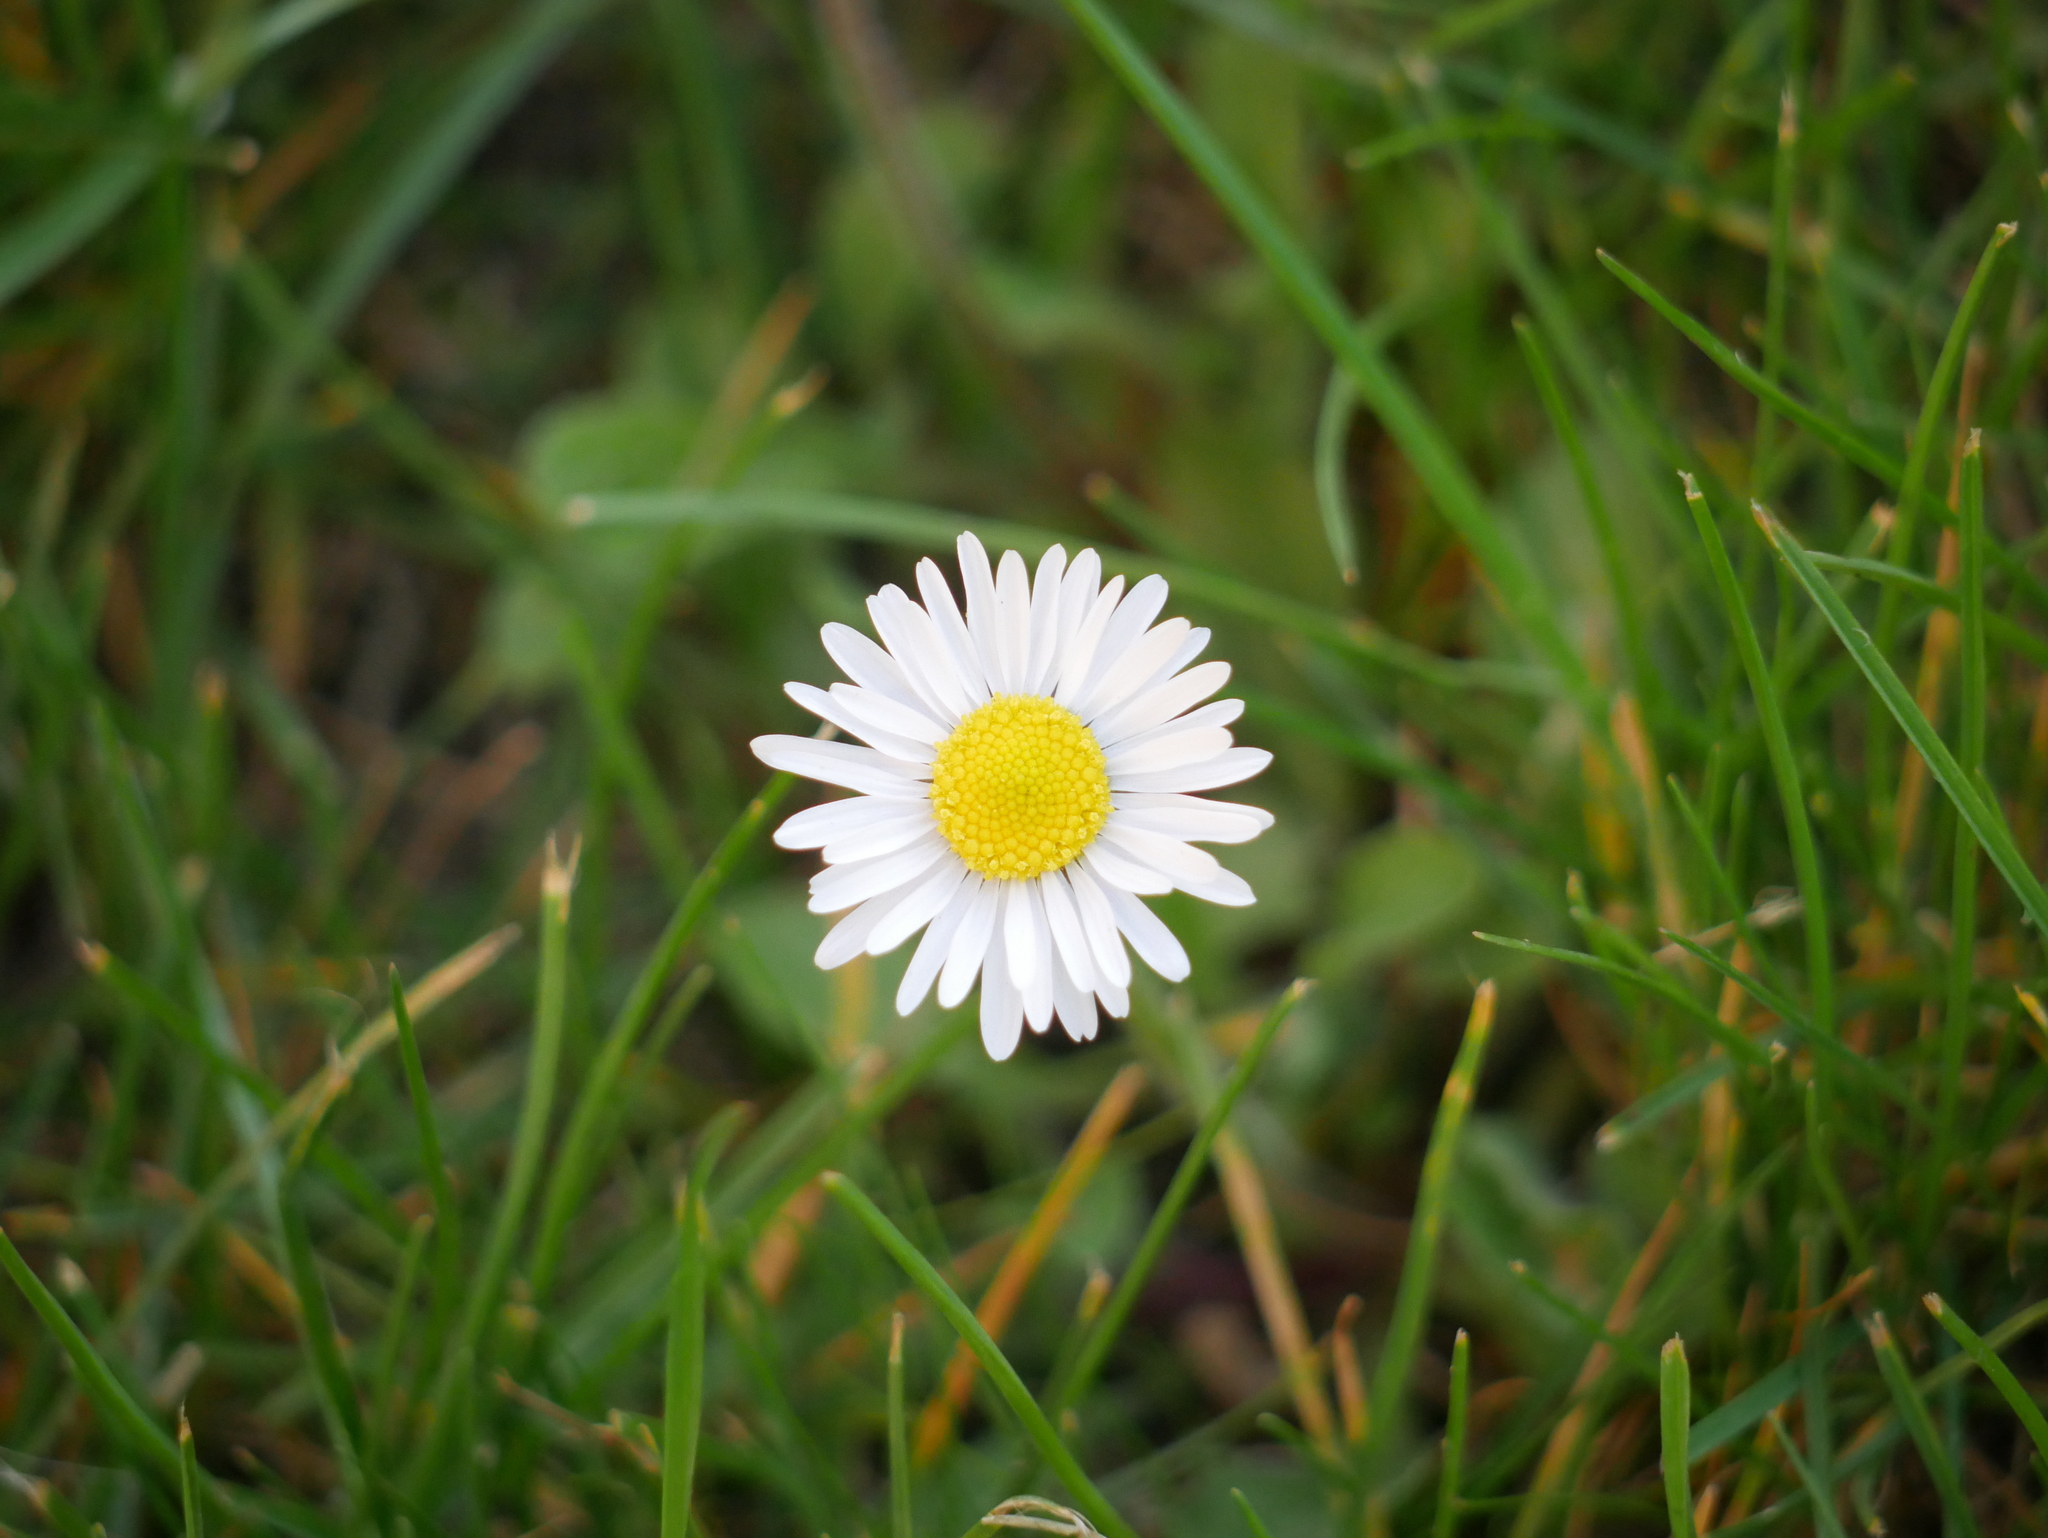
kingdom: Plantae
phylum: Tracheophyta
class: Magnoliopsida
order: Asterales
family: Asteraceae
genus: Bellis
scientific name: Bellis perennis
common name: Lawndaisy
